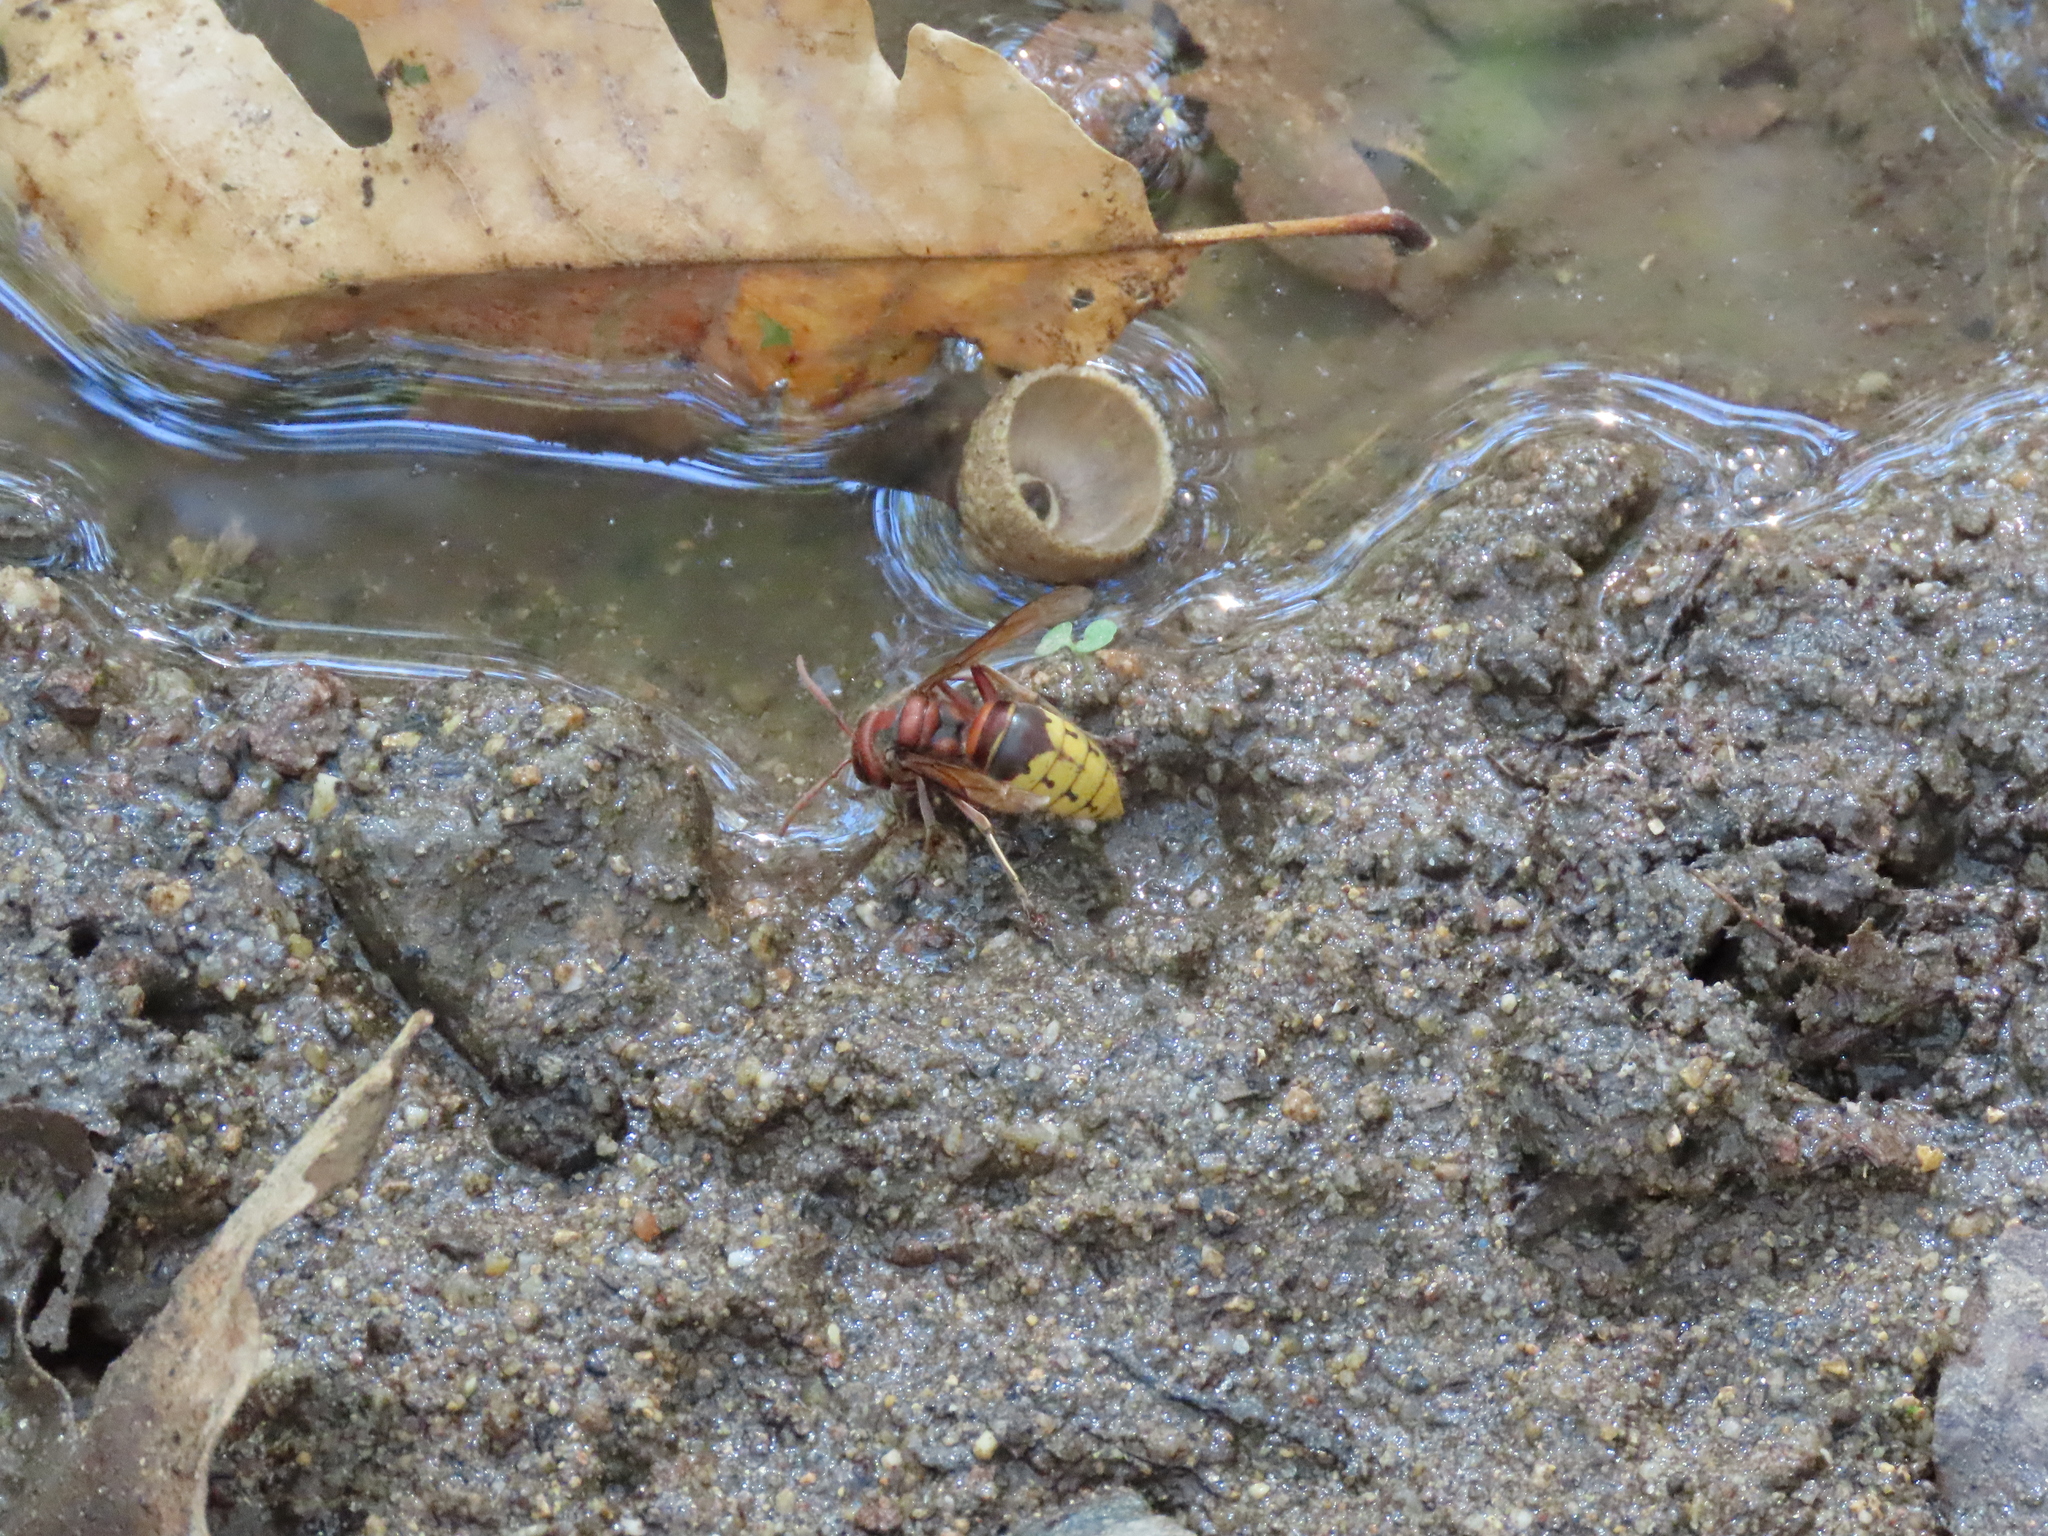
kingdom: Animalia
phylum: Arthropoda
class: Insecta
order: Hymenoptera
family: Vespidae
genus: Vespa
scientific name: Vespa crabro
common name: Hornet
